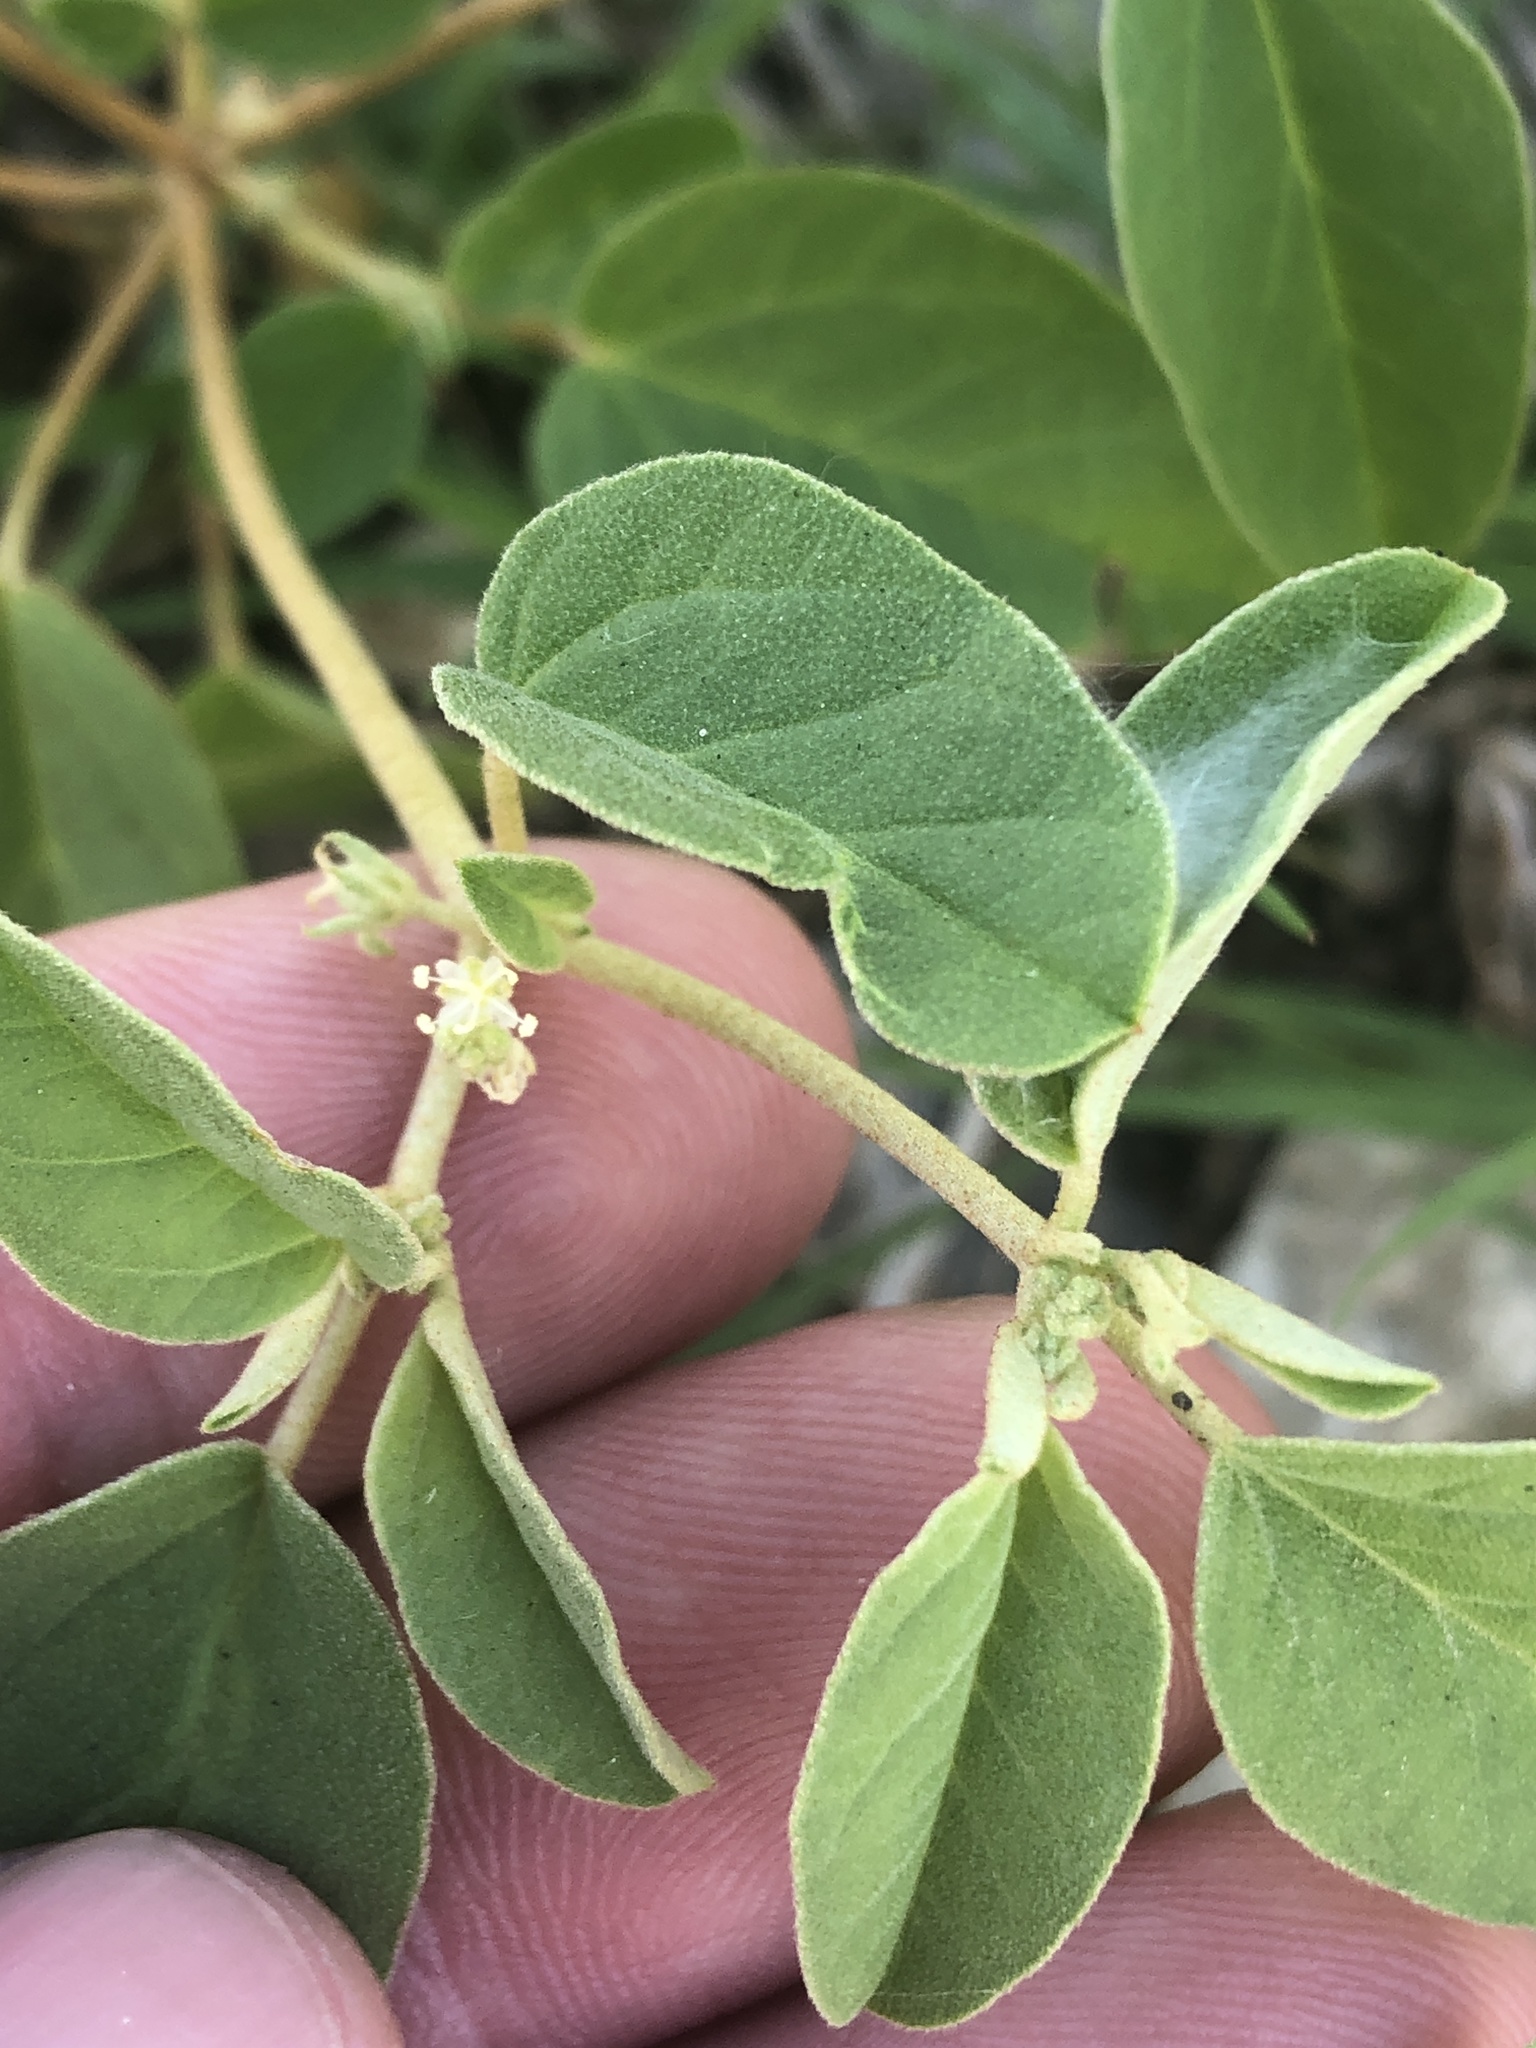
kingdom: Plantae
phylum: Tracheophyta
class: Magnoliopsida
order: Malpighiales
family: Euphorbiaceae
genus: Croton
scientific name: Croton monanthogynus
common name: One-seed croton
